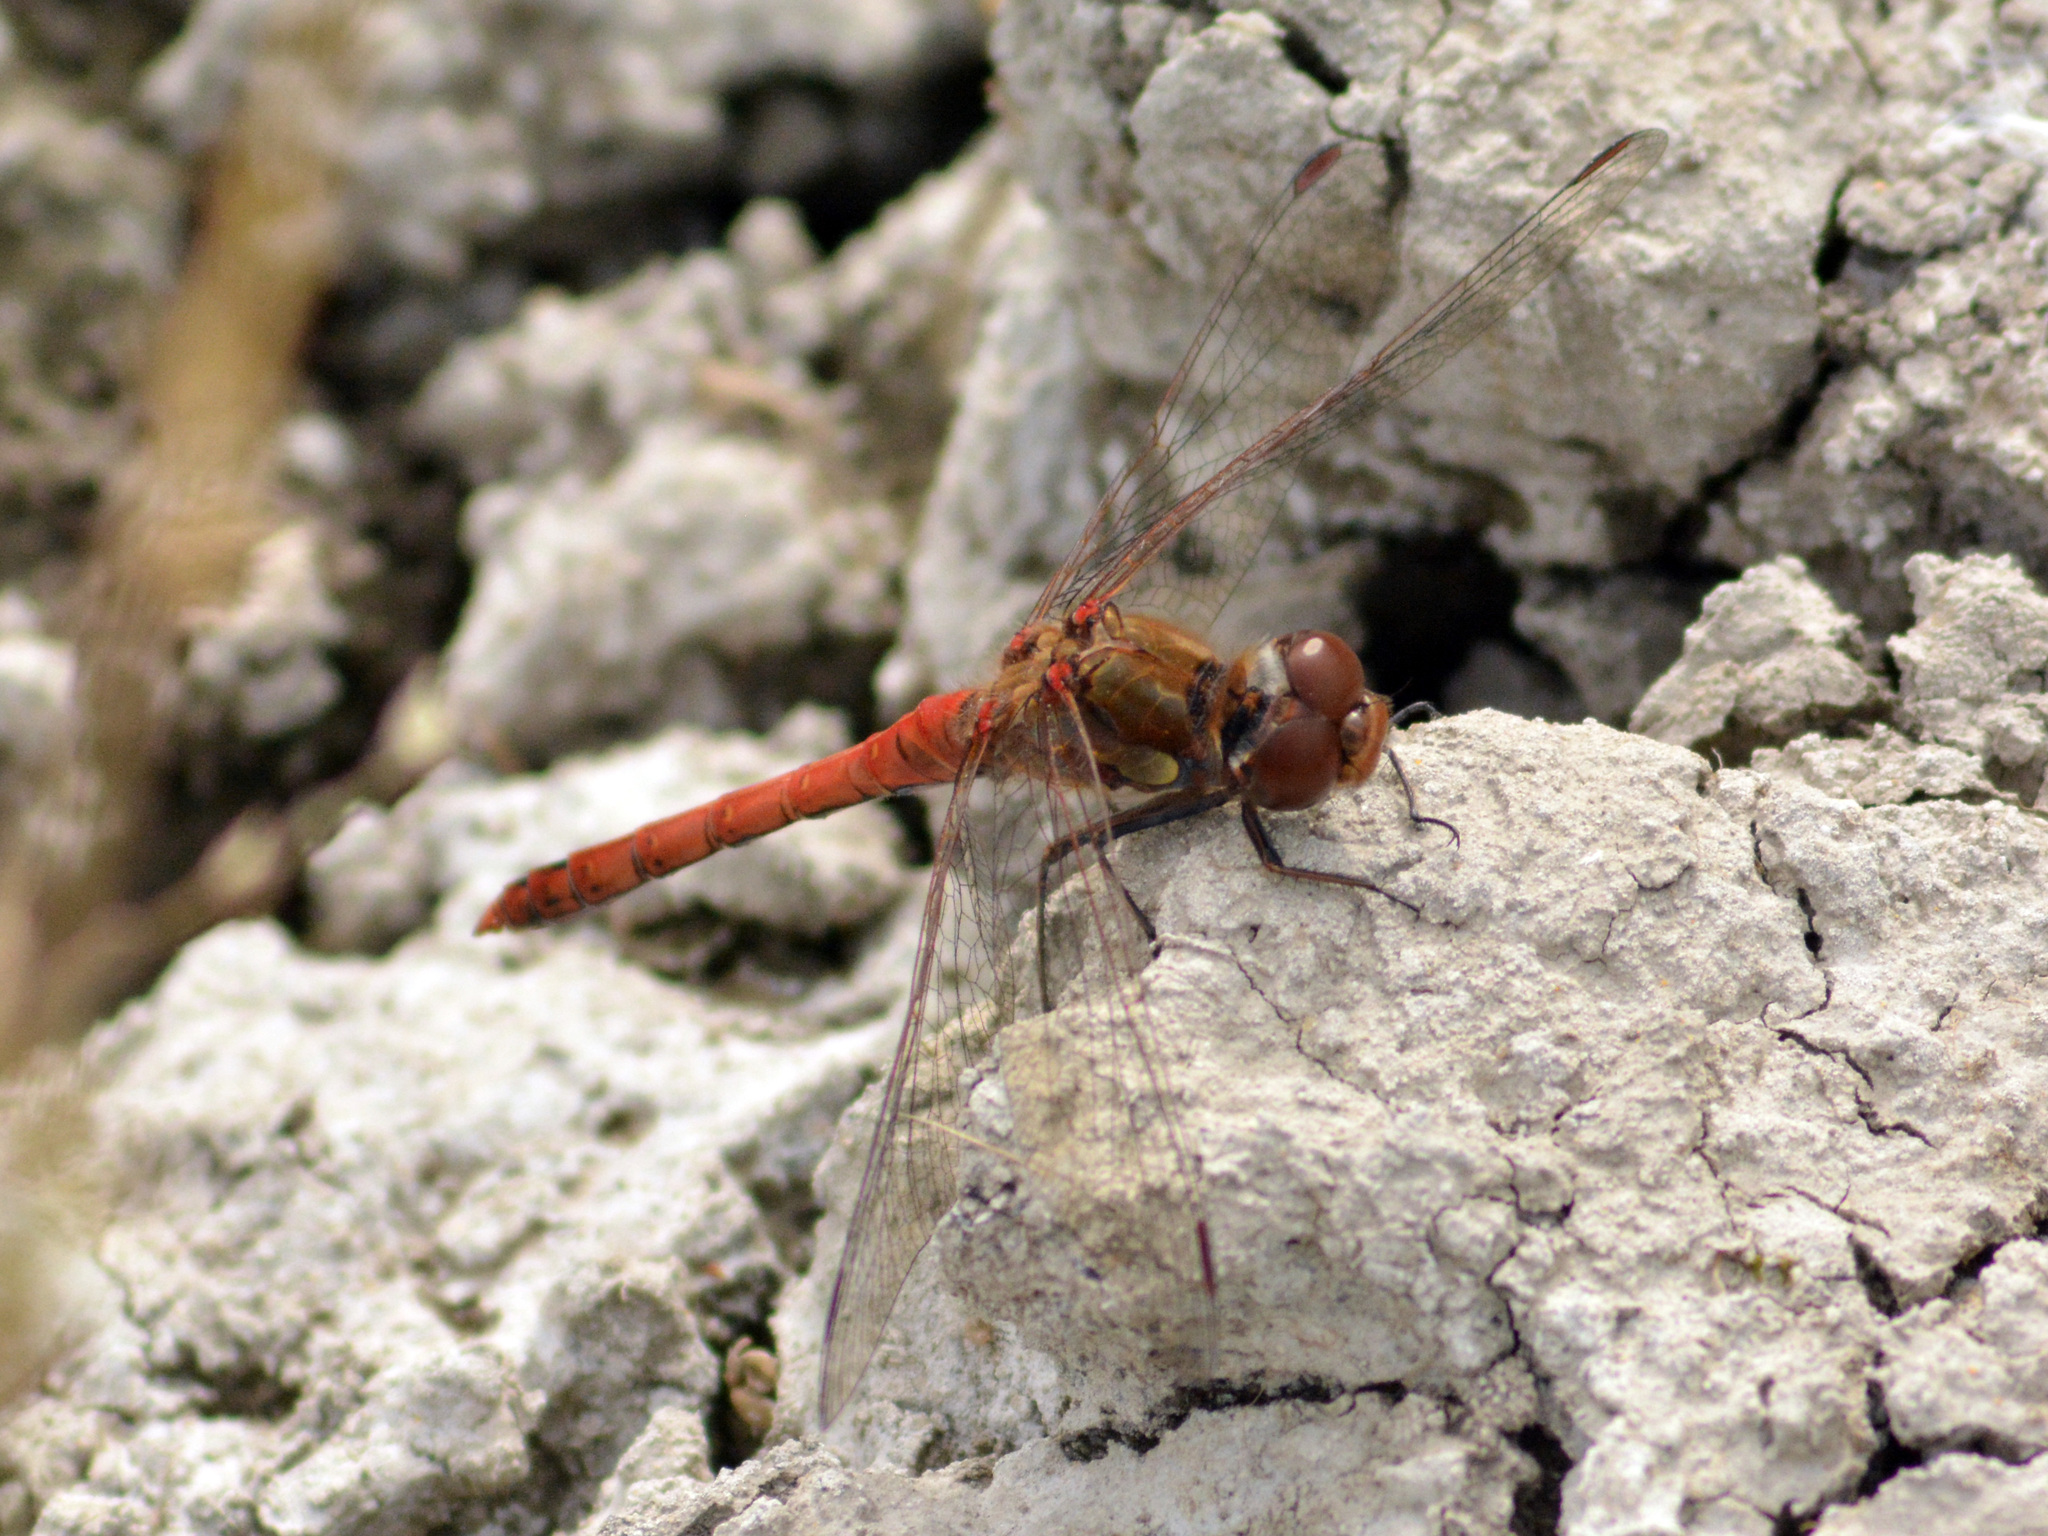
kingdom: Animalia
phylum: Arthropoda
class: Insecta
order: Odonata
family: Libellulidae
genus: Sympetrum
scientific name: Sympetrum striolatum
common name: Common darter
